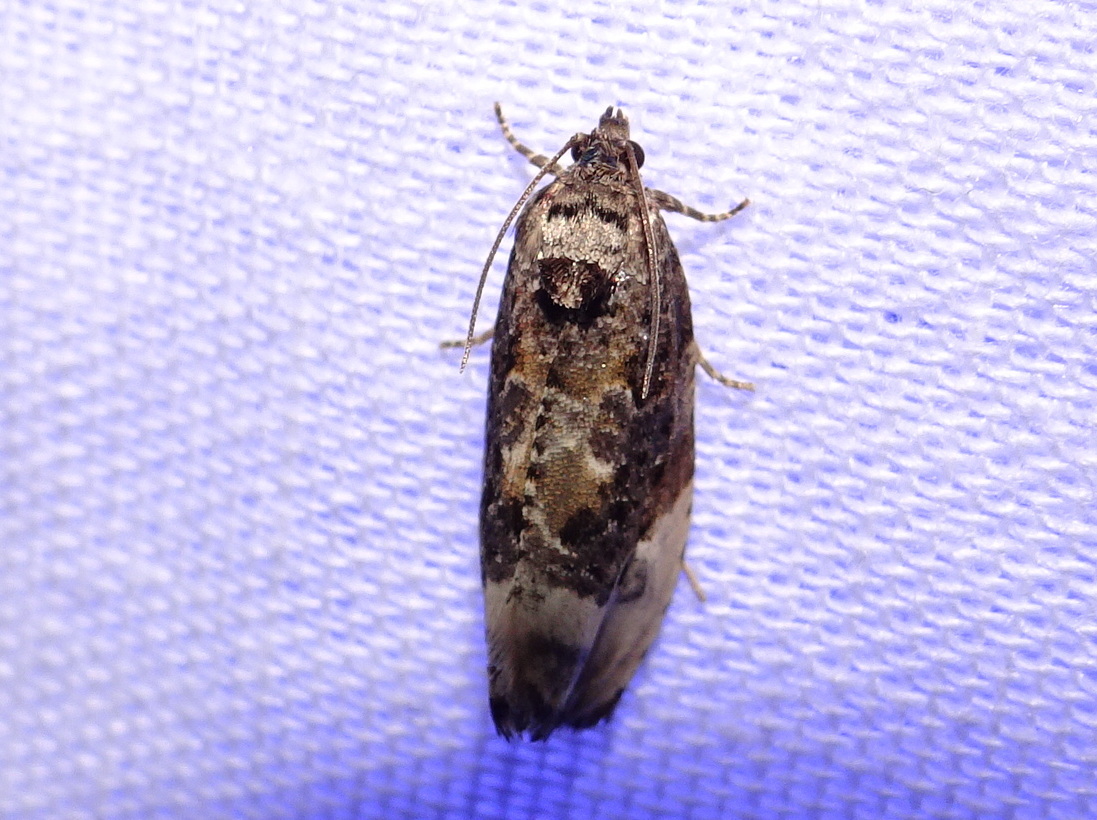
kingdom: Animalia
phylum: Arthropoda
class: Insecta
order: Lepidoptera
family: Tortricidae
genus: Hedya
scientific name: Hedya nubiferana
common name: Marbled orchard tortrix
